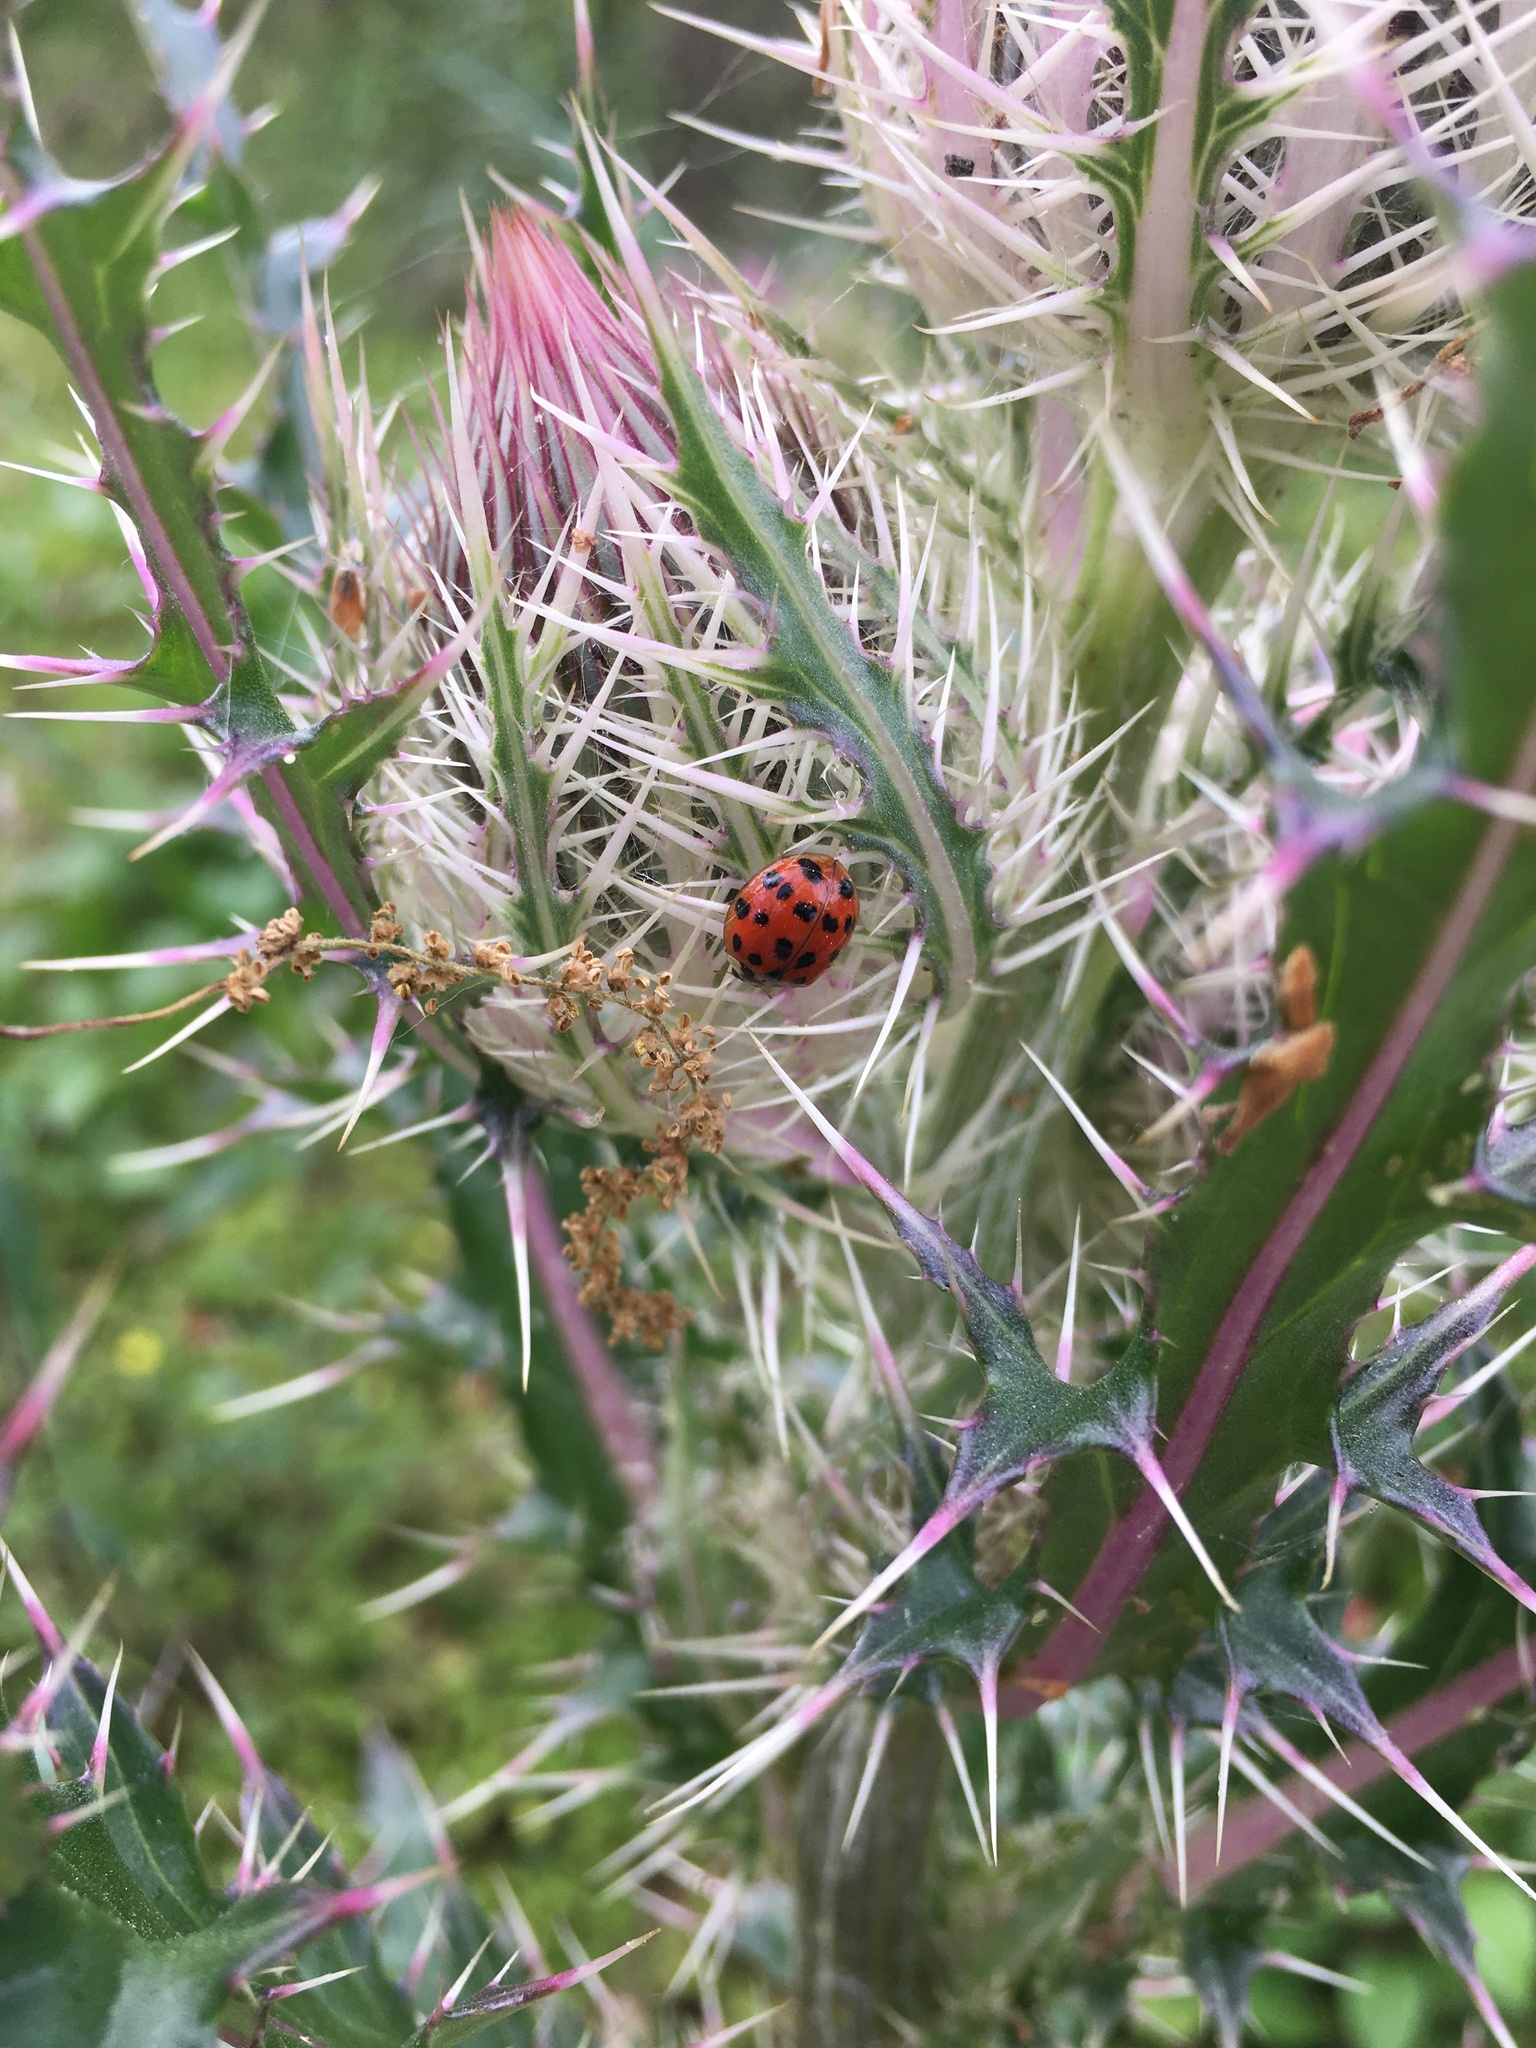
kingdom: Animalia
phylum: Arthropoda
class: Insecta
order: Coleoptera
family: Coccinellidae
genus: Harmonia
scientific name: Harmonia axyridis
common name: Harlequin ladybird
